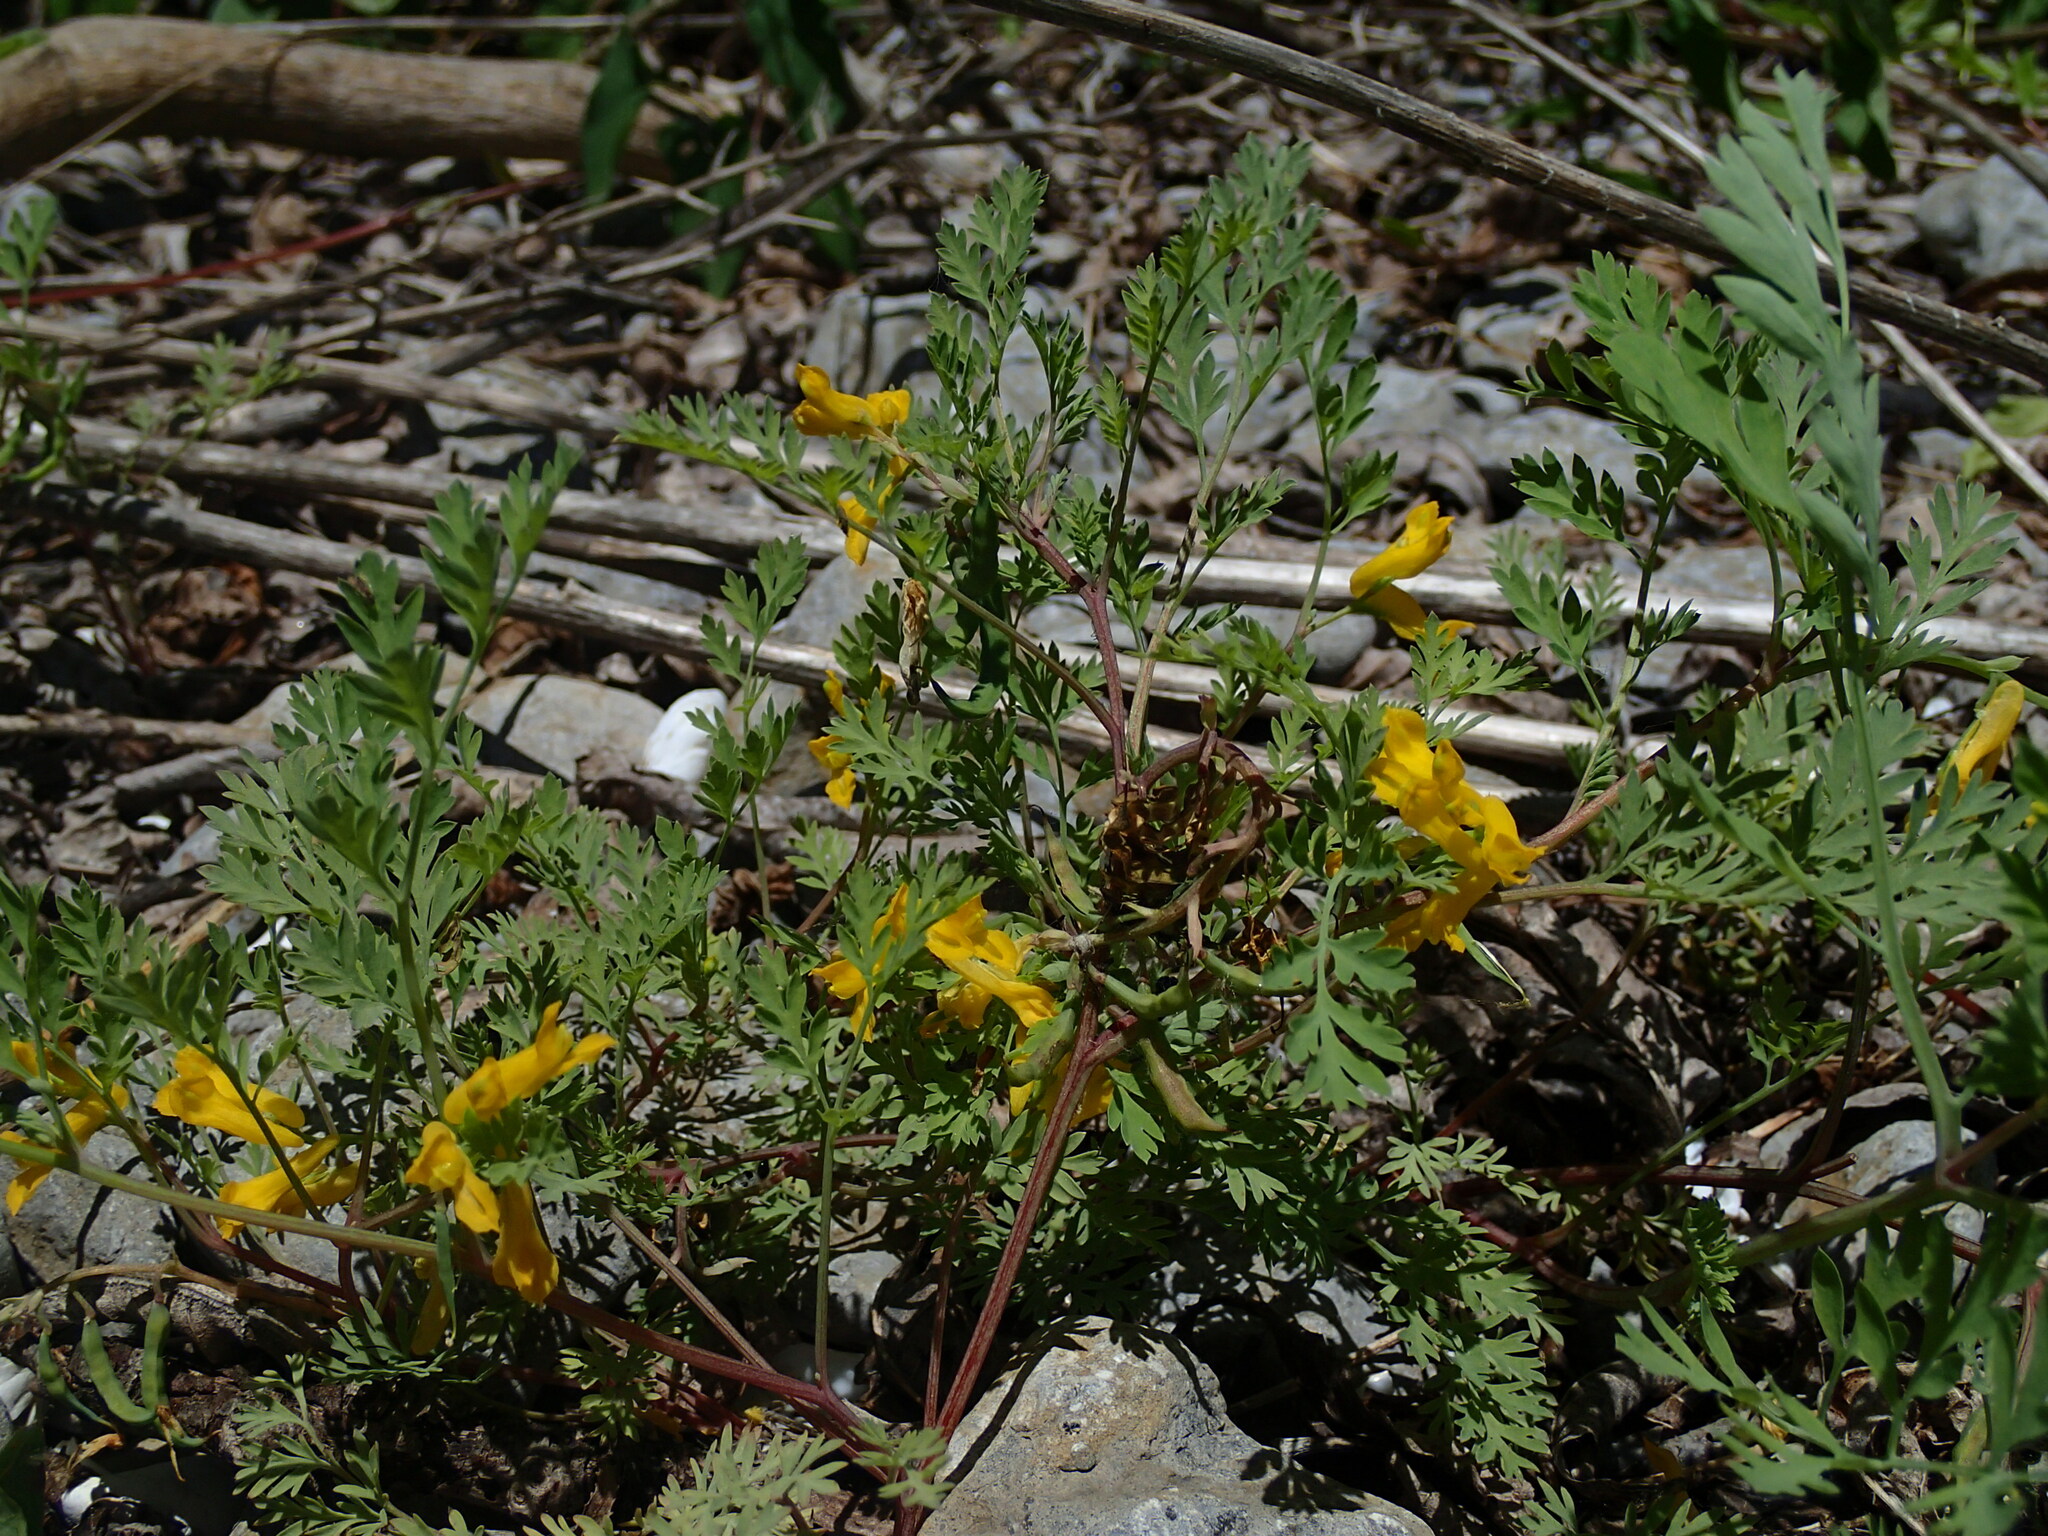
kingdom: Plantae
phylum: Tracheophyta
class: Magnoliopsida
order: Ranunculales
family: Papaveraceae
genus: Corydalis
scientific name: Corydalis aurea
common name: Golden corydalis
